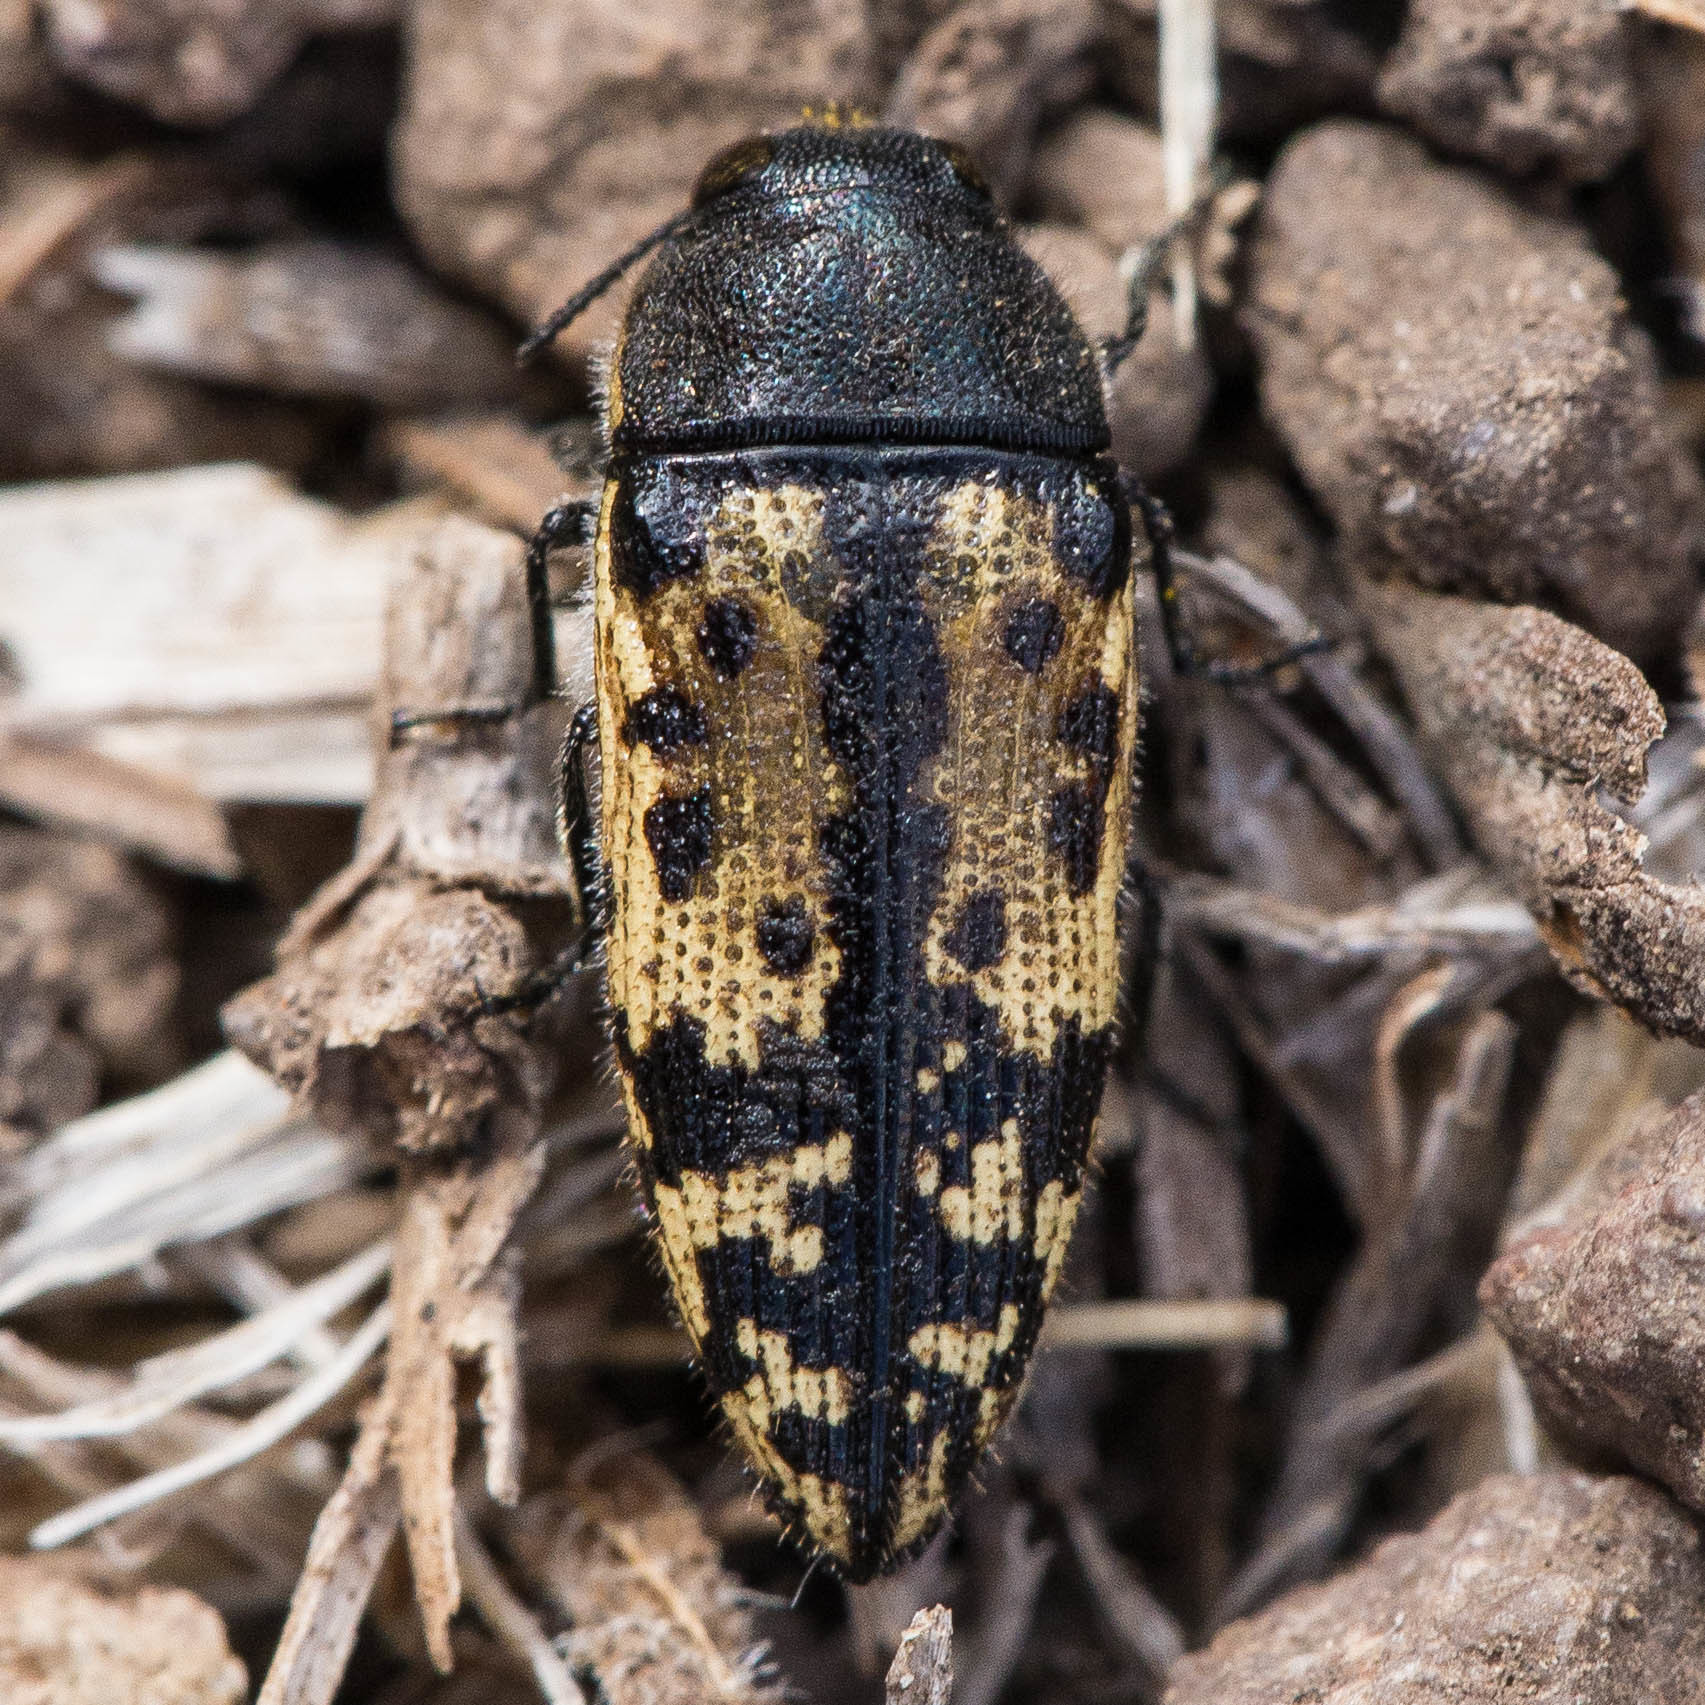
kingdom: Animalia
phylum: Arthropoda
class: Insecta
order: Coleoptera
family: Buprestidae
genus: Acmaeodera
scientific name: Acmaeodera hepburnii
